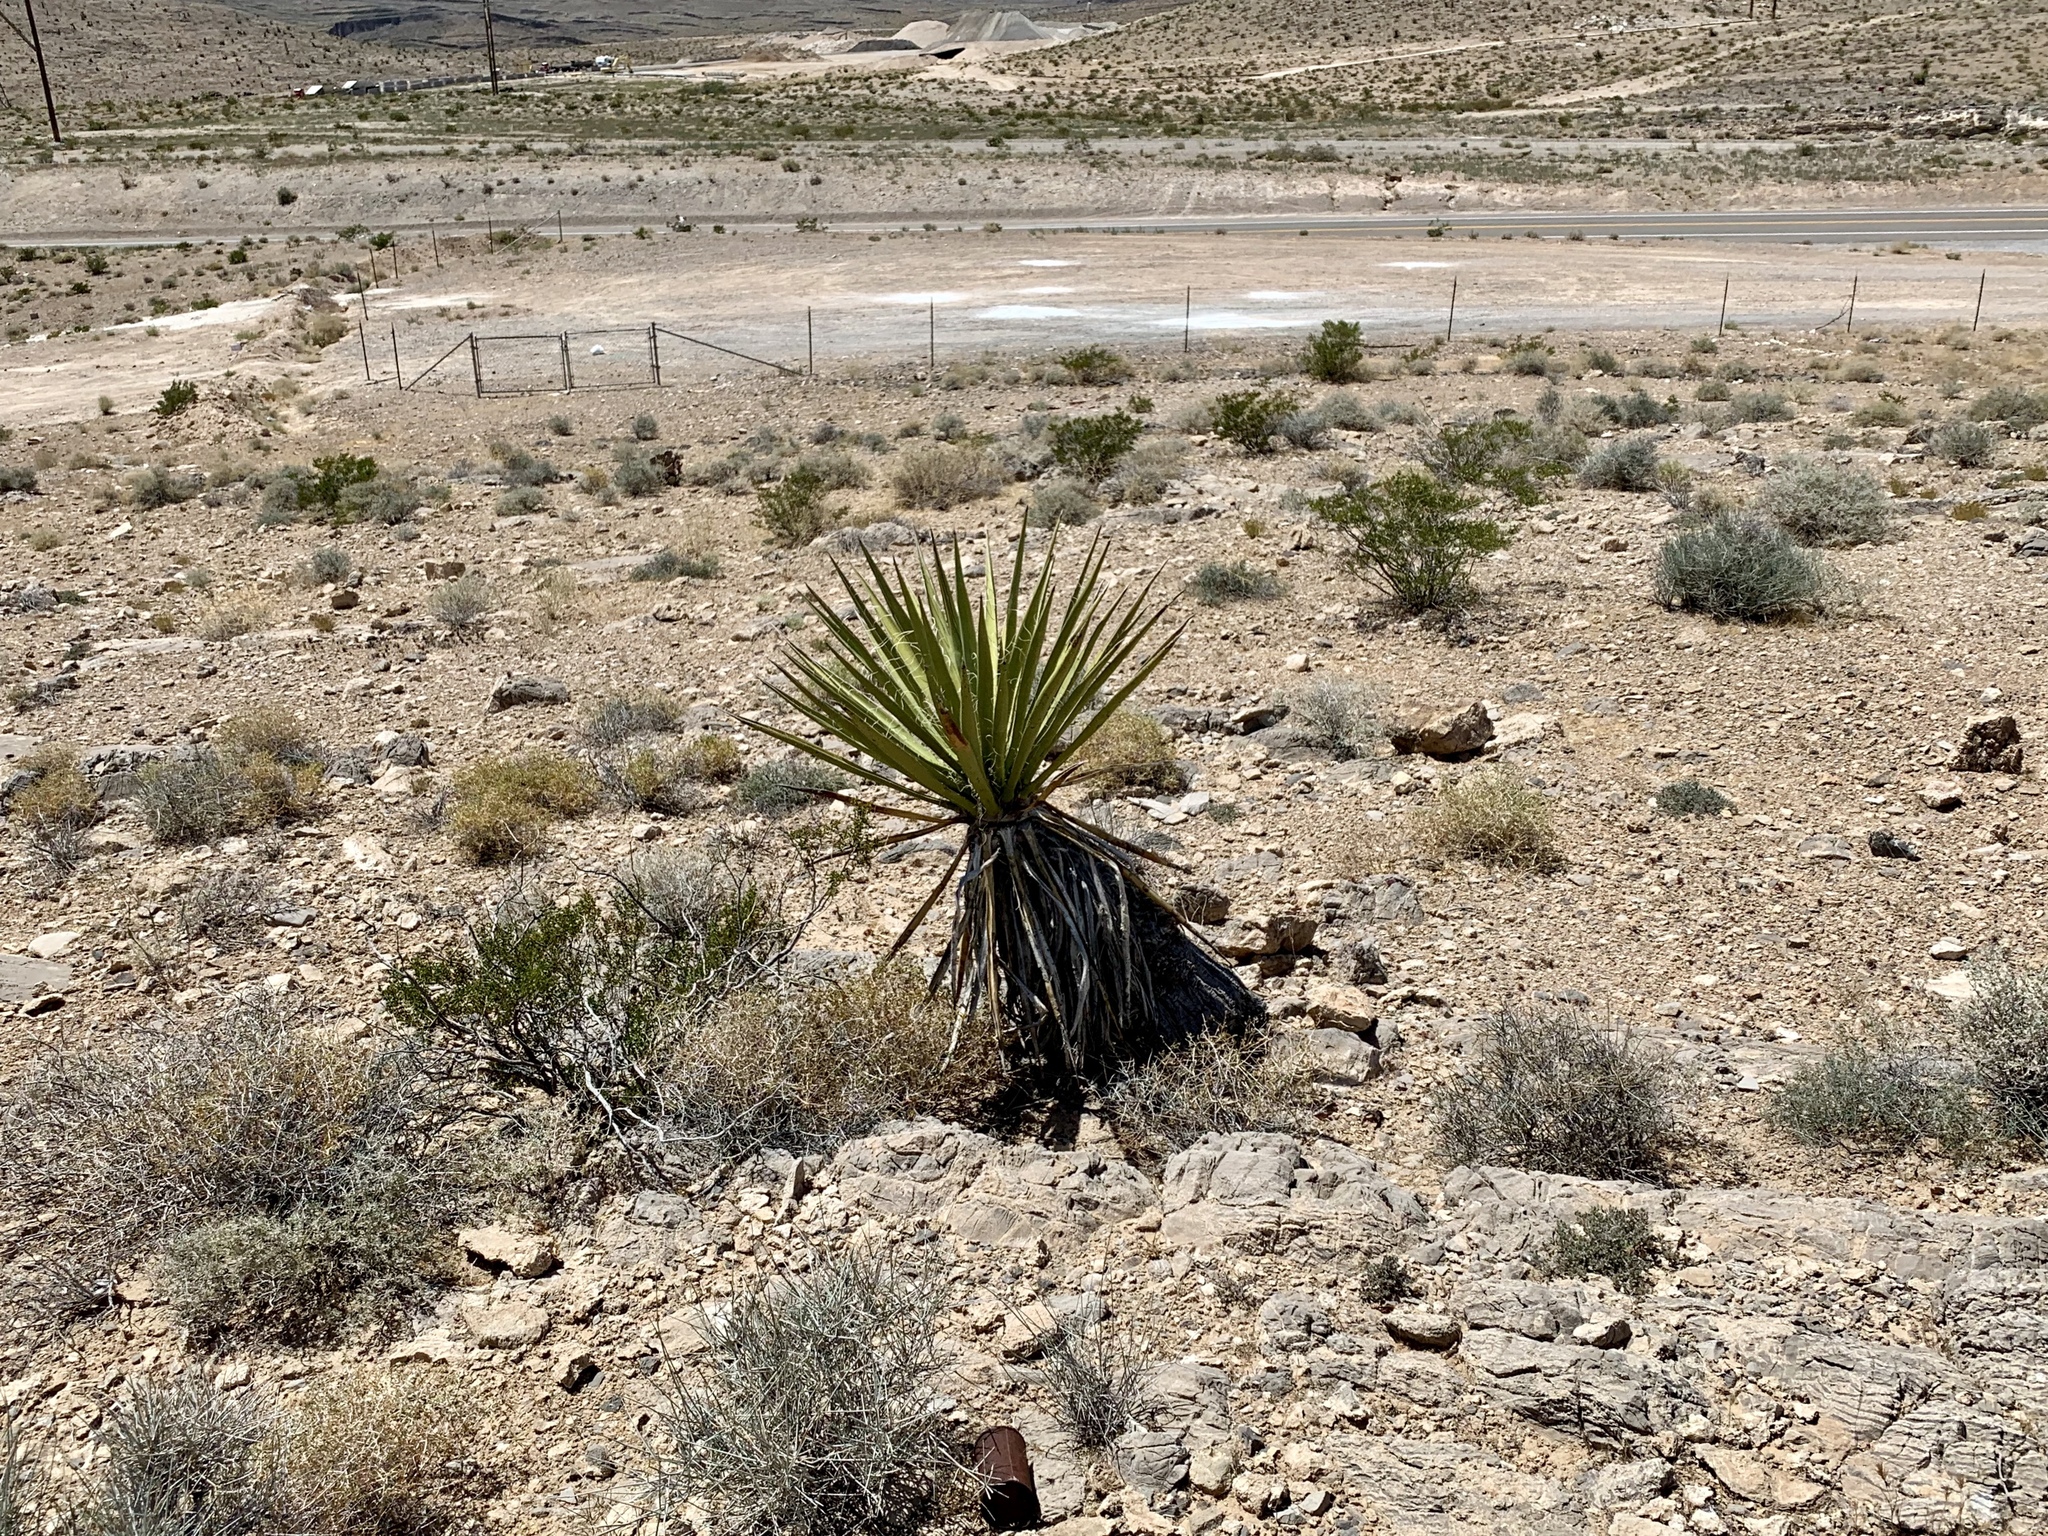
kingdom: Plantae
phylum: Tracheophyta
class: Liliopsida
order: Asparagales
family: Asparagaceae
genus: Yucca
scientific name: Yucca schidigera
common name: Mojave yucca
